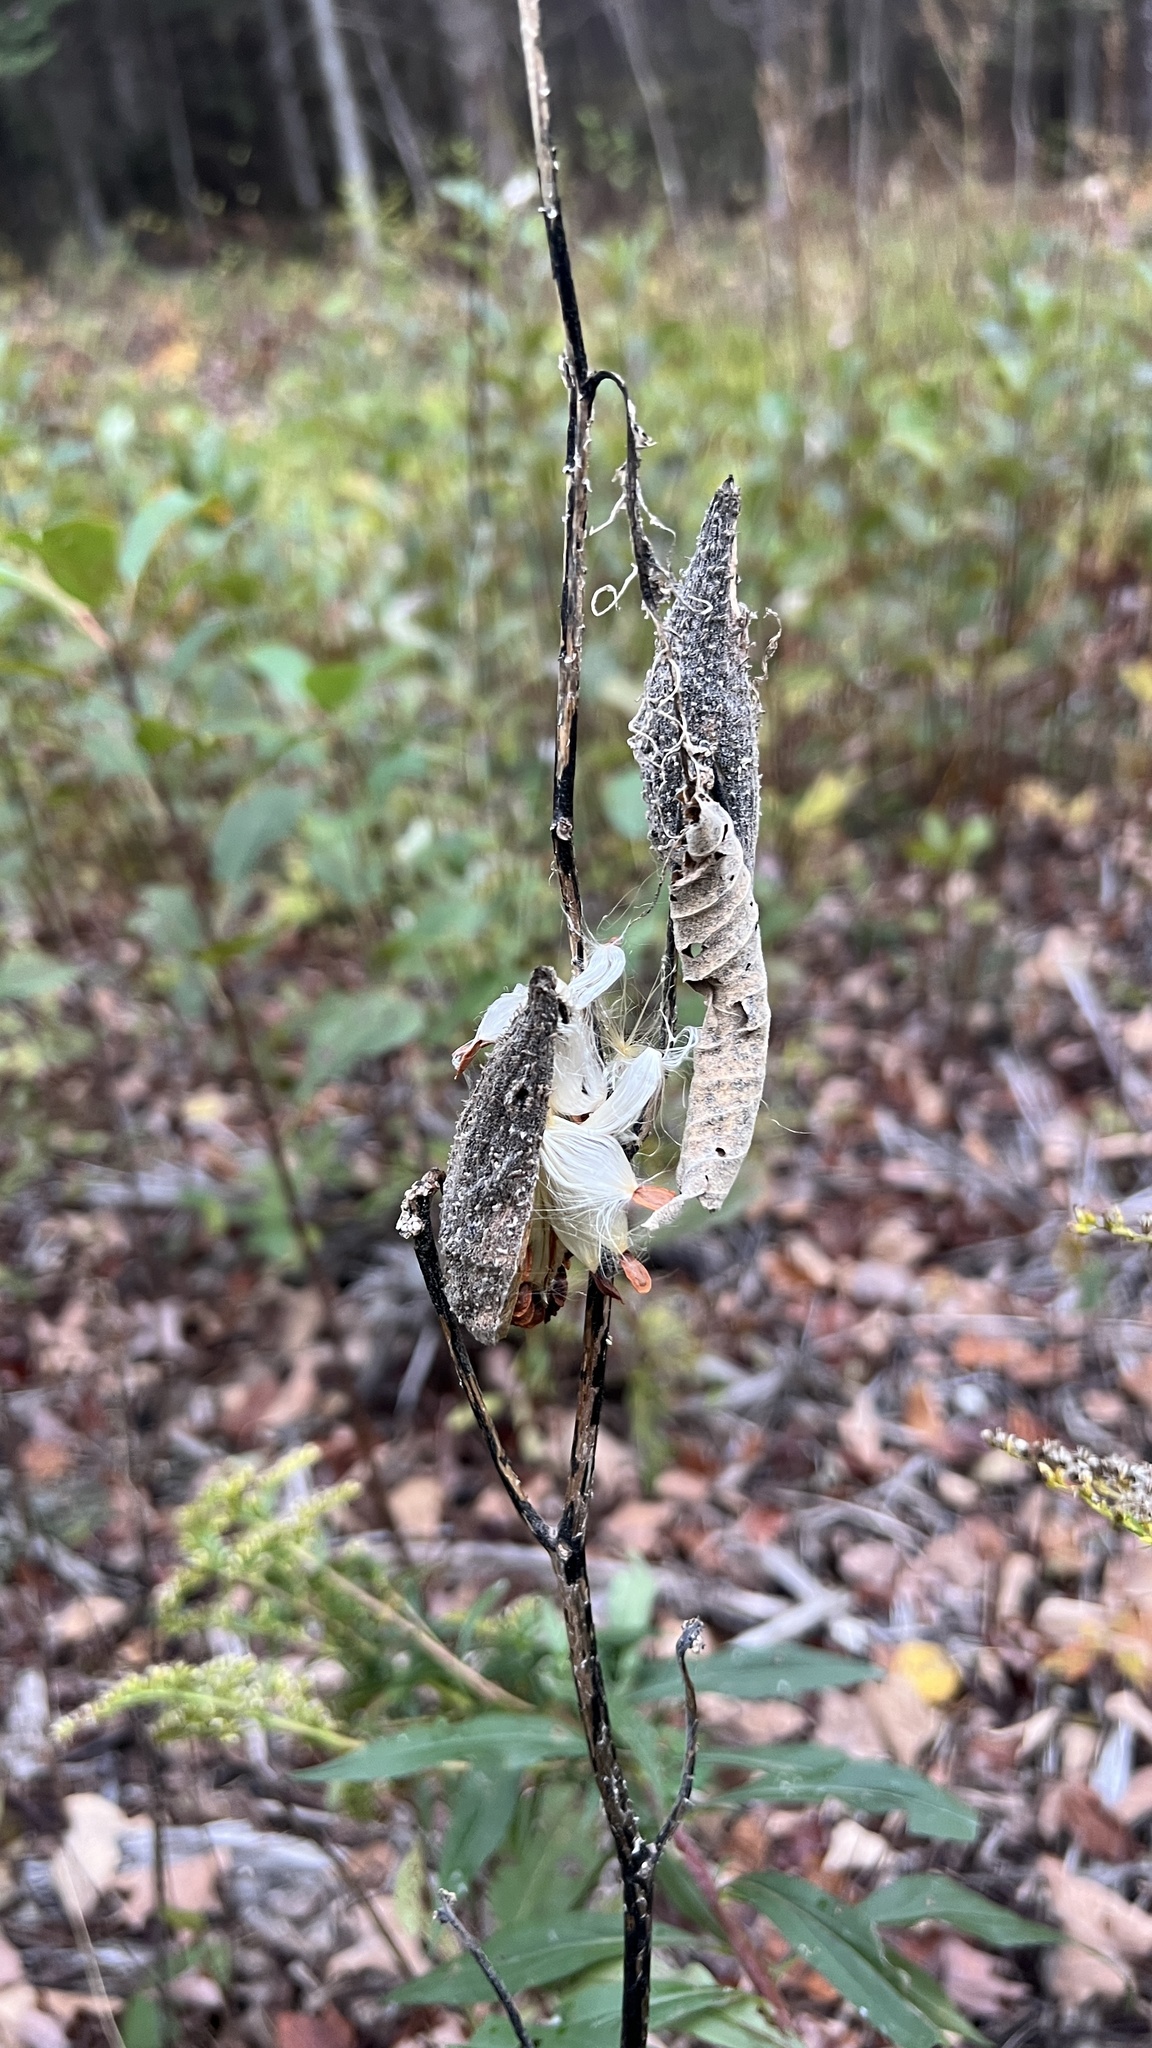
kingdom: Plantae
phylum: Tracheophyta
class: Magnoliopsida
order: Gentianales
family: Apocynaceae
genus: Asclepias
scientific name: Asclepias syriaca
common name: Common milkweed
